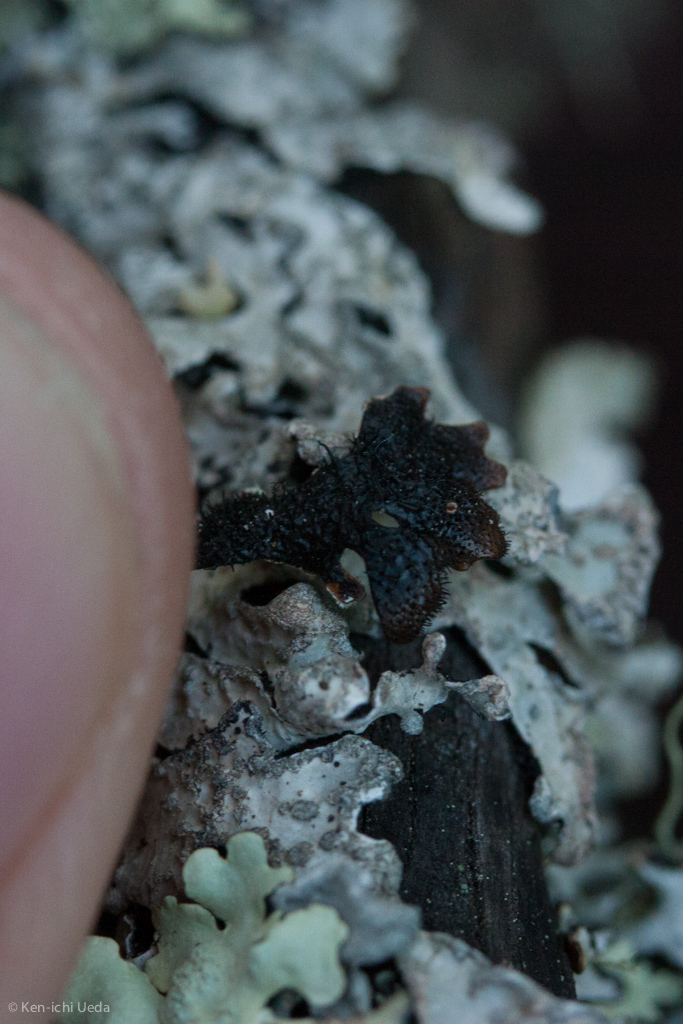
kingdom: Fungi
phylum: Ascomycota
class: Lecanoromycetes
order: Lecanorales
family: Parmeliaceae
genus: Parmelia
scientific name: Parmelia sulcata
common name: Netted shield lichen
